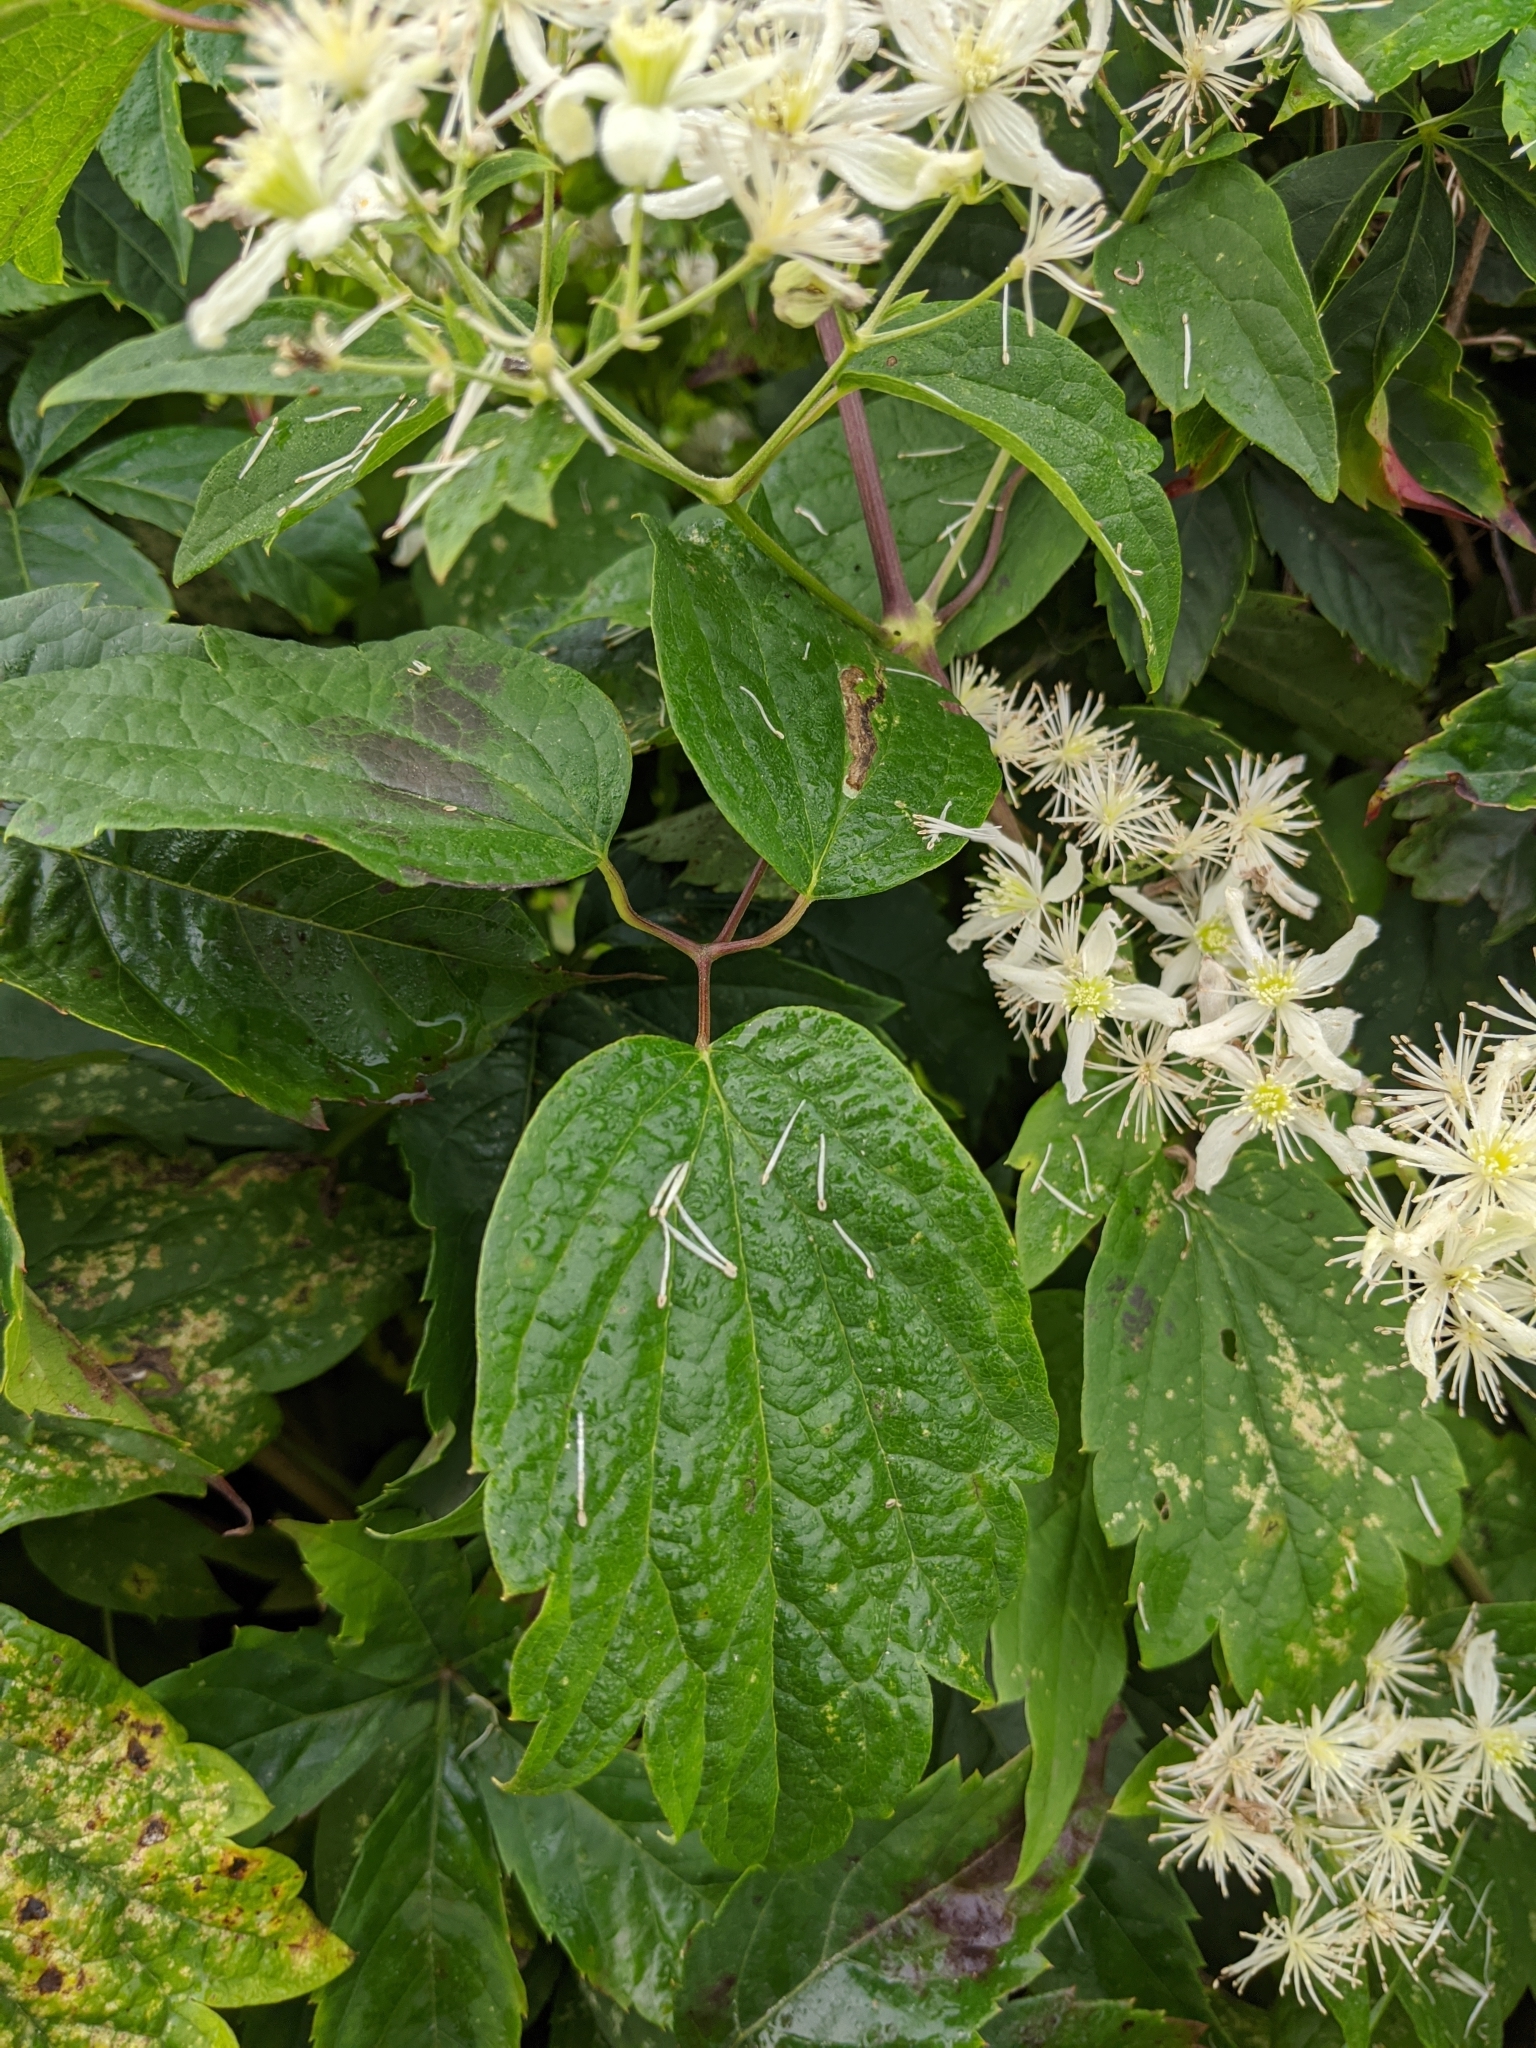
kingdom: Plantae
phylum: Tracheophyta
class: Magnoliopsida
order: Ranunculales
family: Ranunculaceae
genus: Clematis
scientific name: Clematis virginiana
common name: Virgin's-bower
